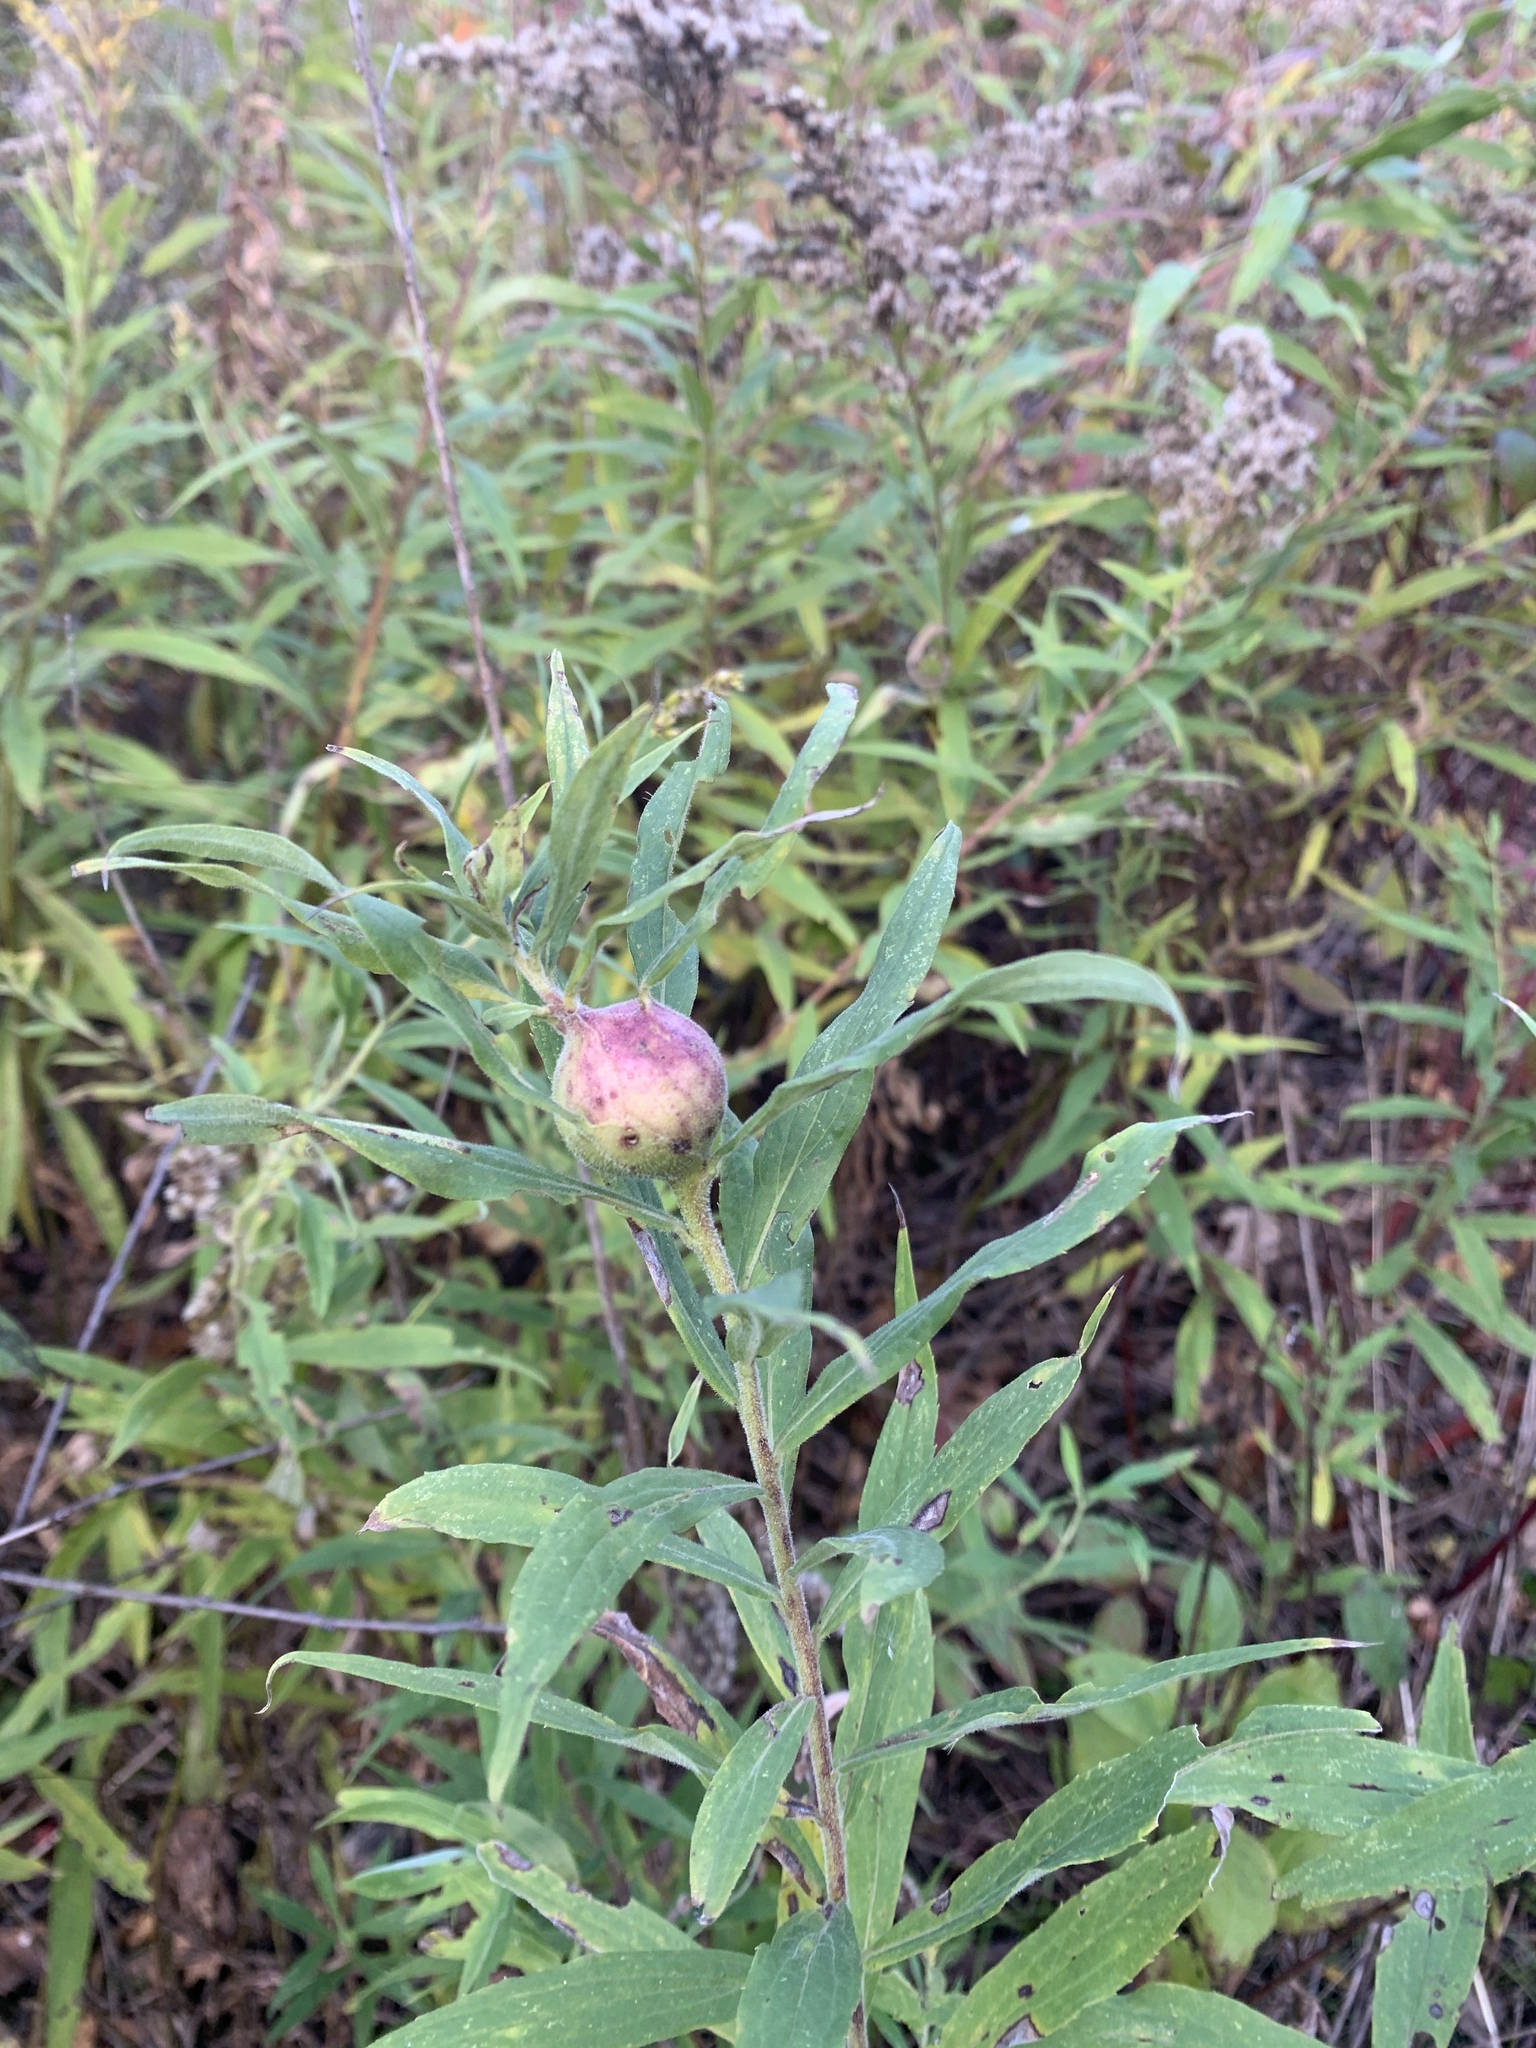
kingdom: Animalia
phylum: Arthropoda
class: Insecta
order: Diptera
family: Tephritidae
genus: Eurosta
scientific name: Eurosta solidaginis
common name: Goldenrod gall fly
